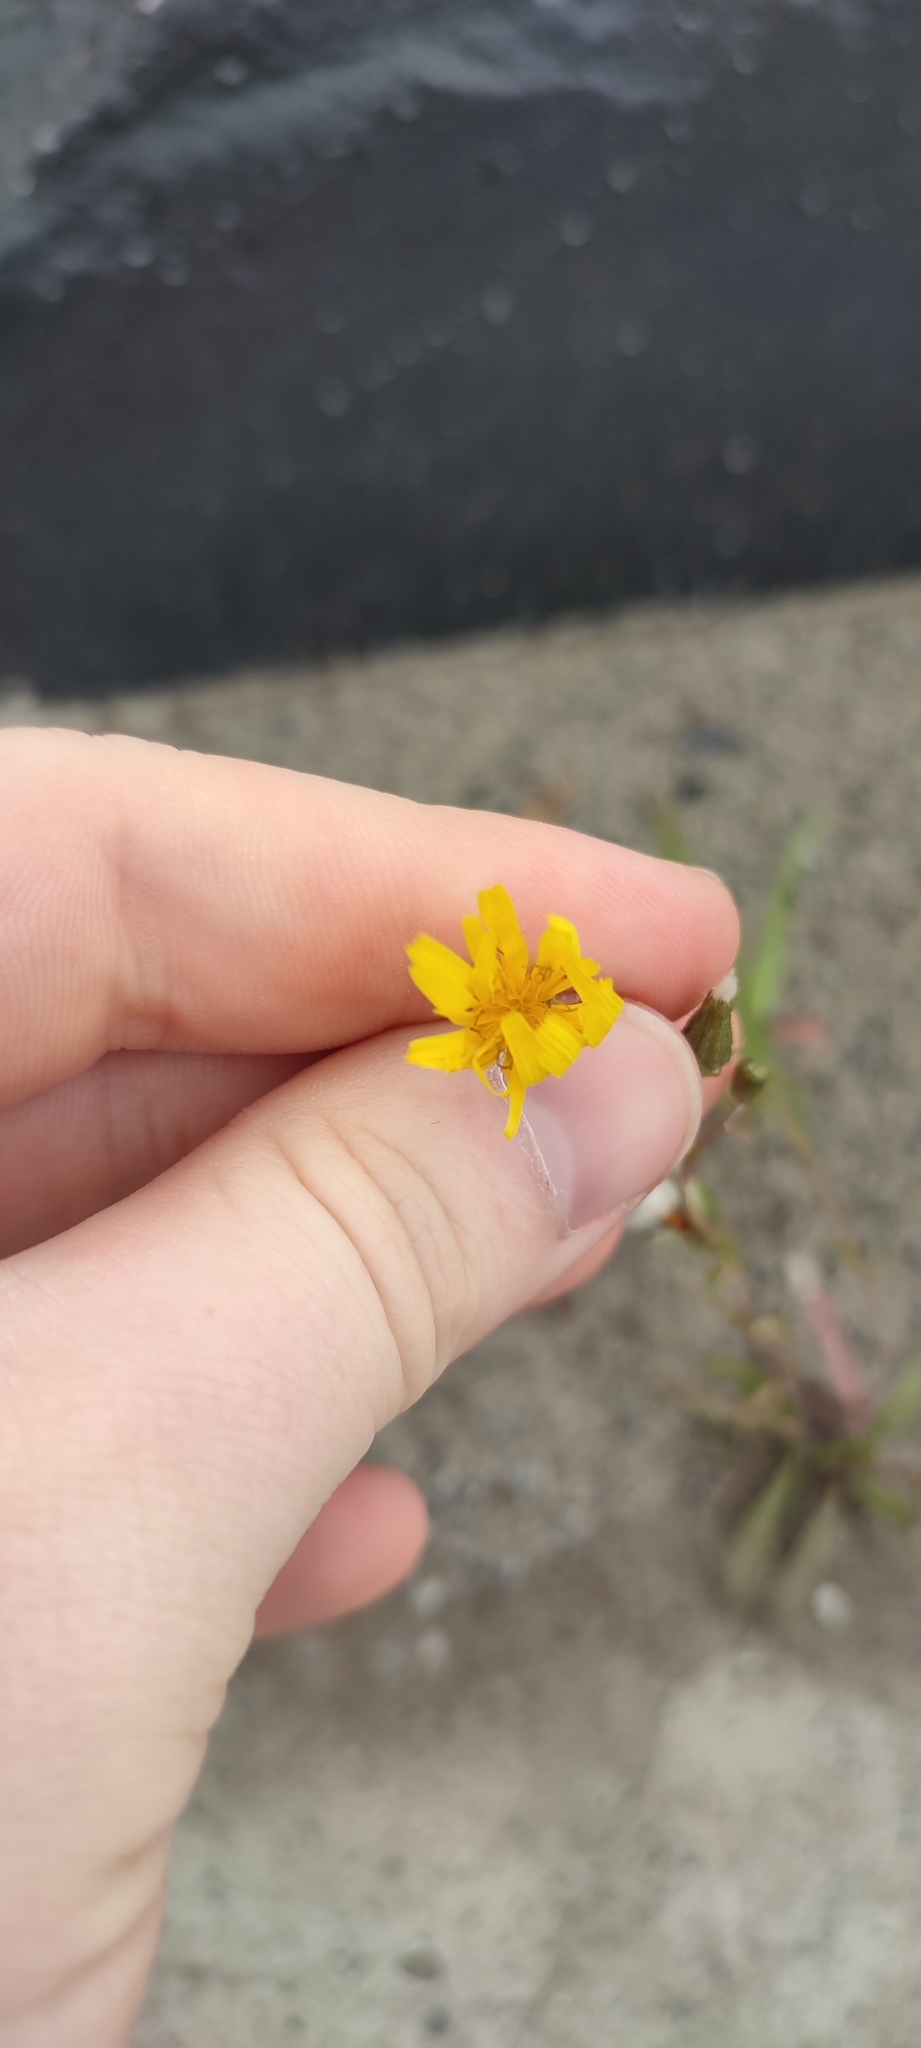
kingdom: Plantae
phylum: Tracheophyta
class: Magnoliopsida
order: Asterales
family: Asteraceae
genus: Crepis
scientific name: Crepis tectorum
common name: Narrow-leaved hawk's-beard
